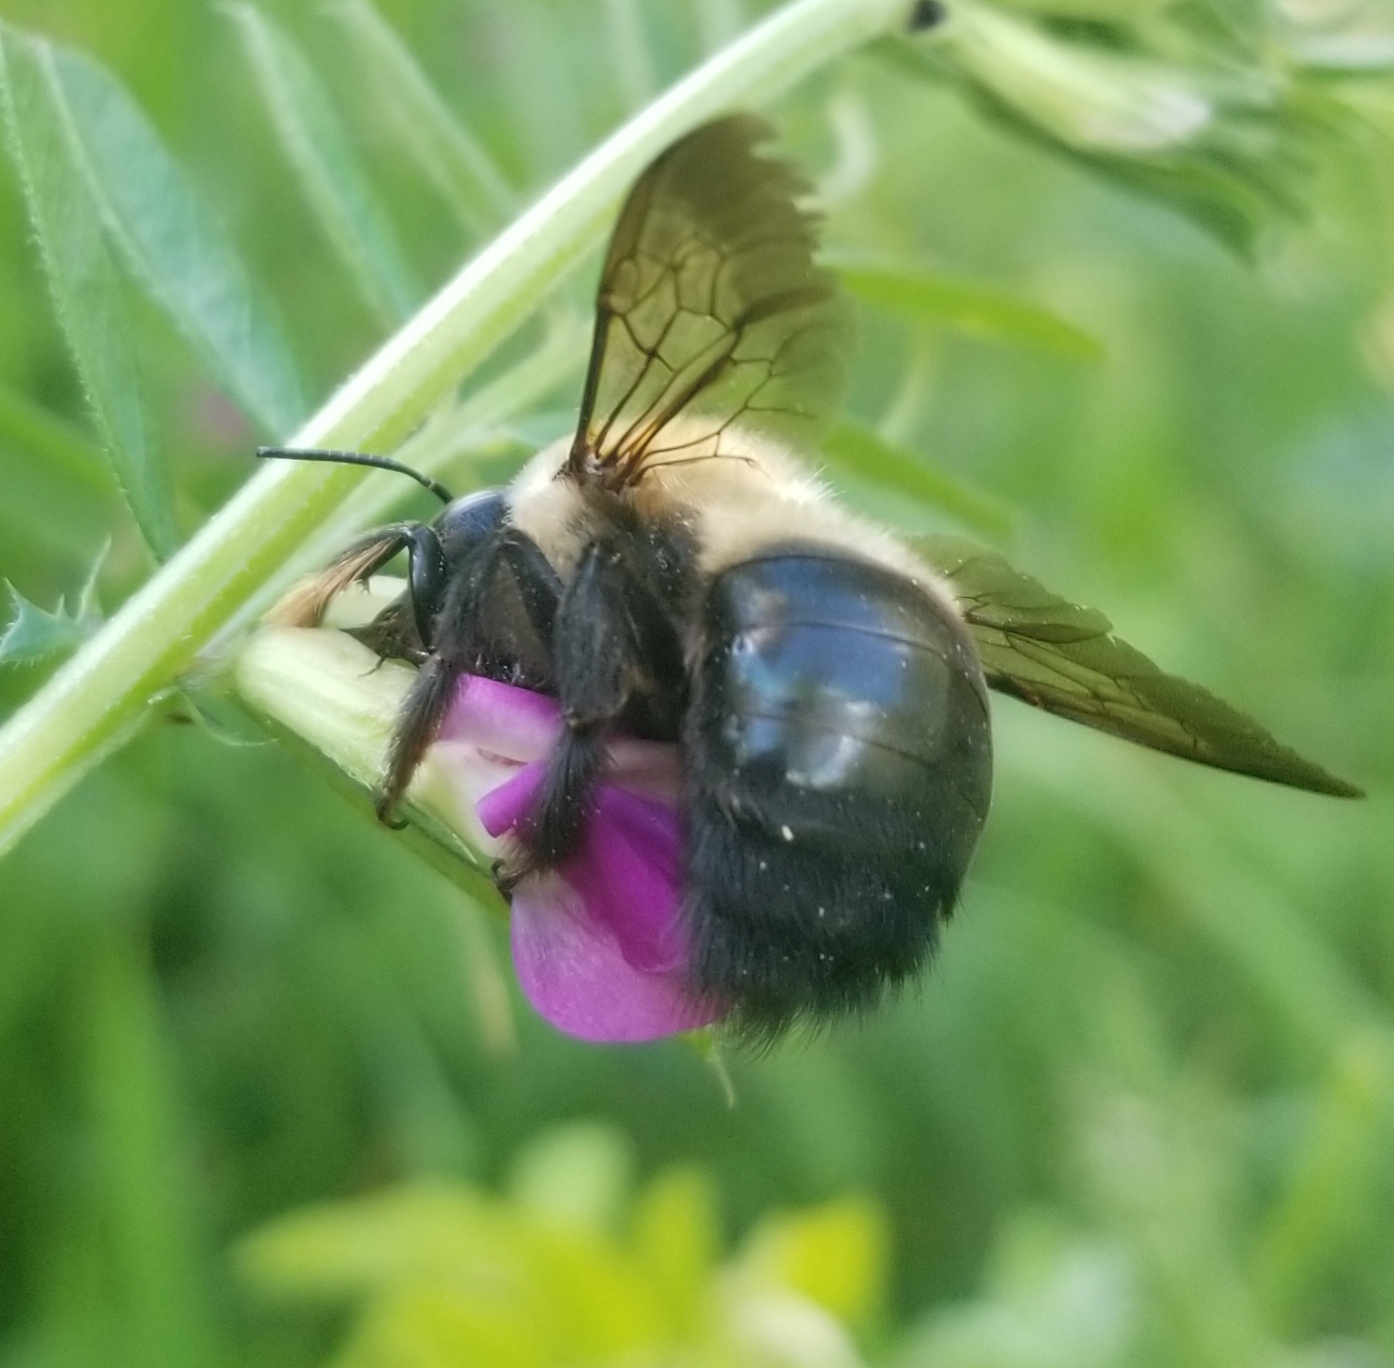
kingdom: Animalia
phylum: Arthropoda
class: Insecta
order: Hymenoptera
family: Apidae
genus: Xylocopa
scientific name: Xylocopa virginica
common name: Carpenter bee
